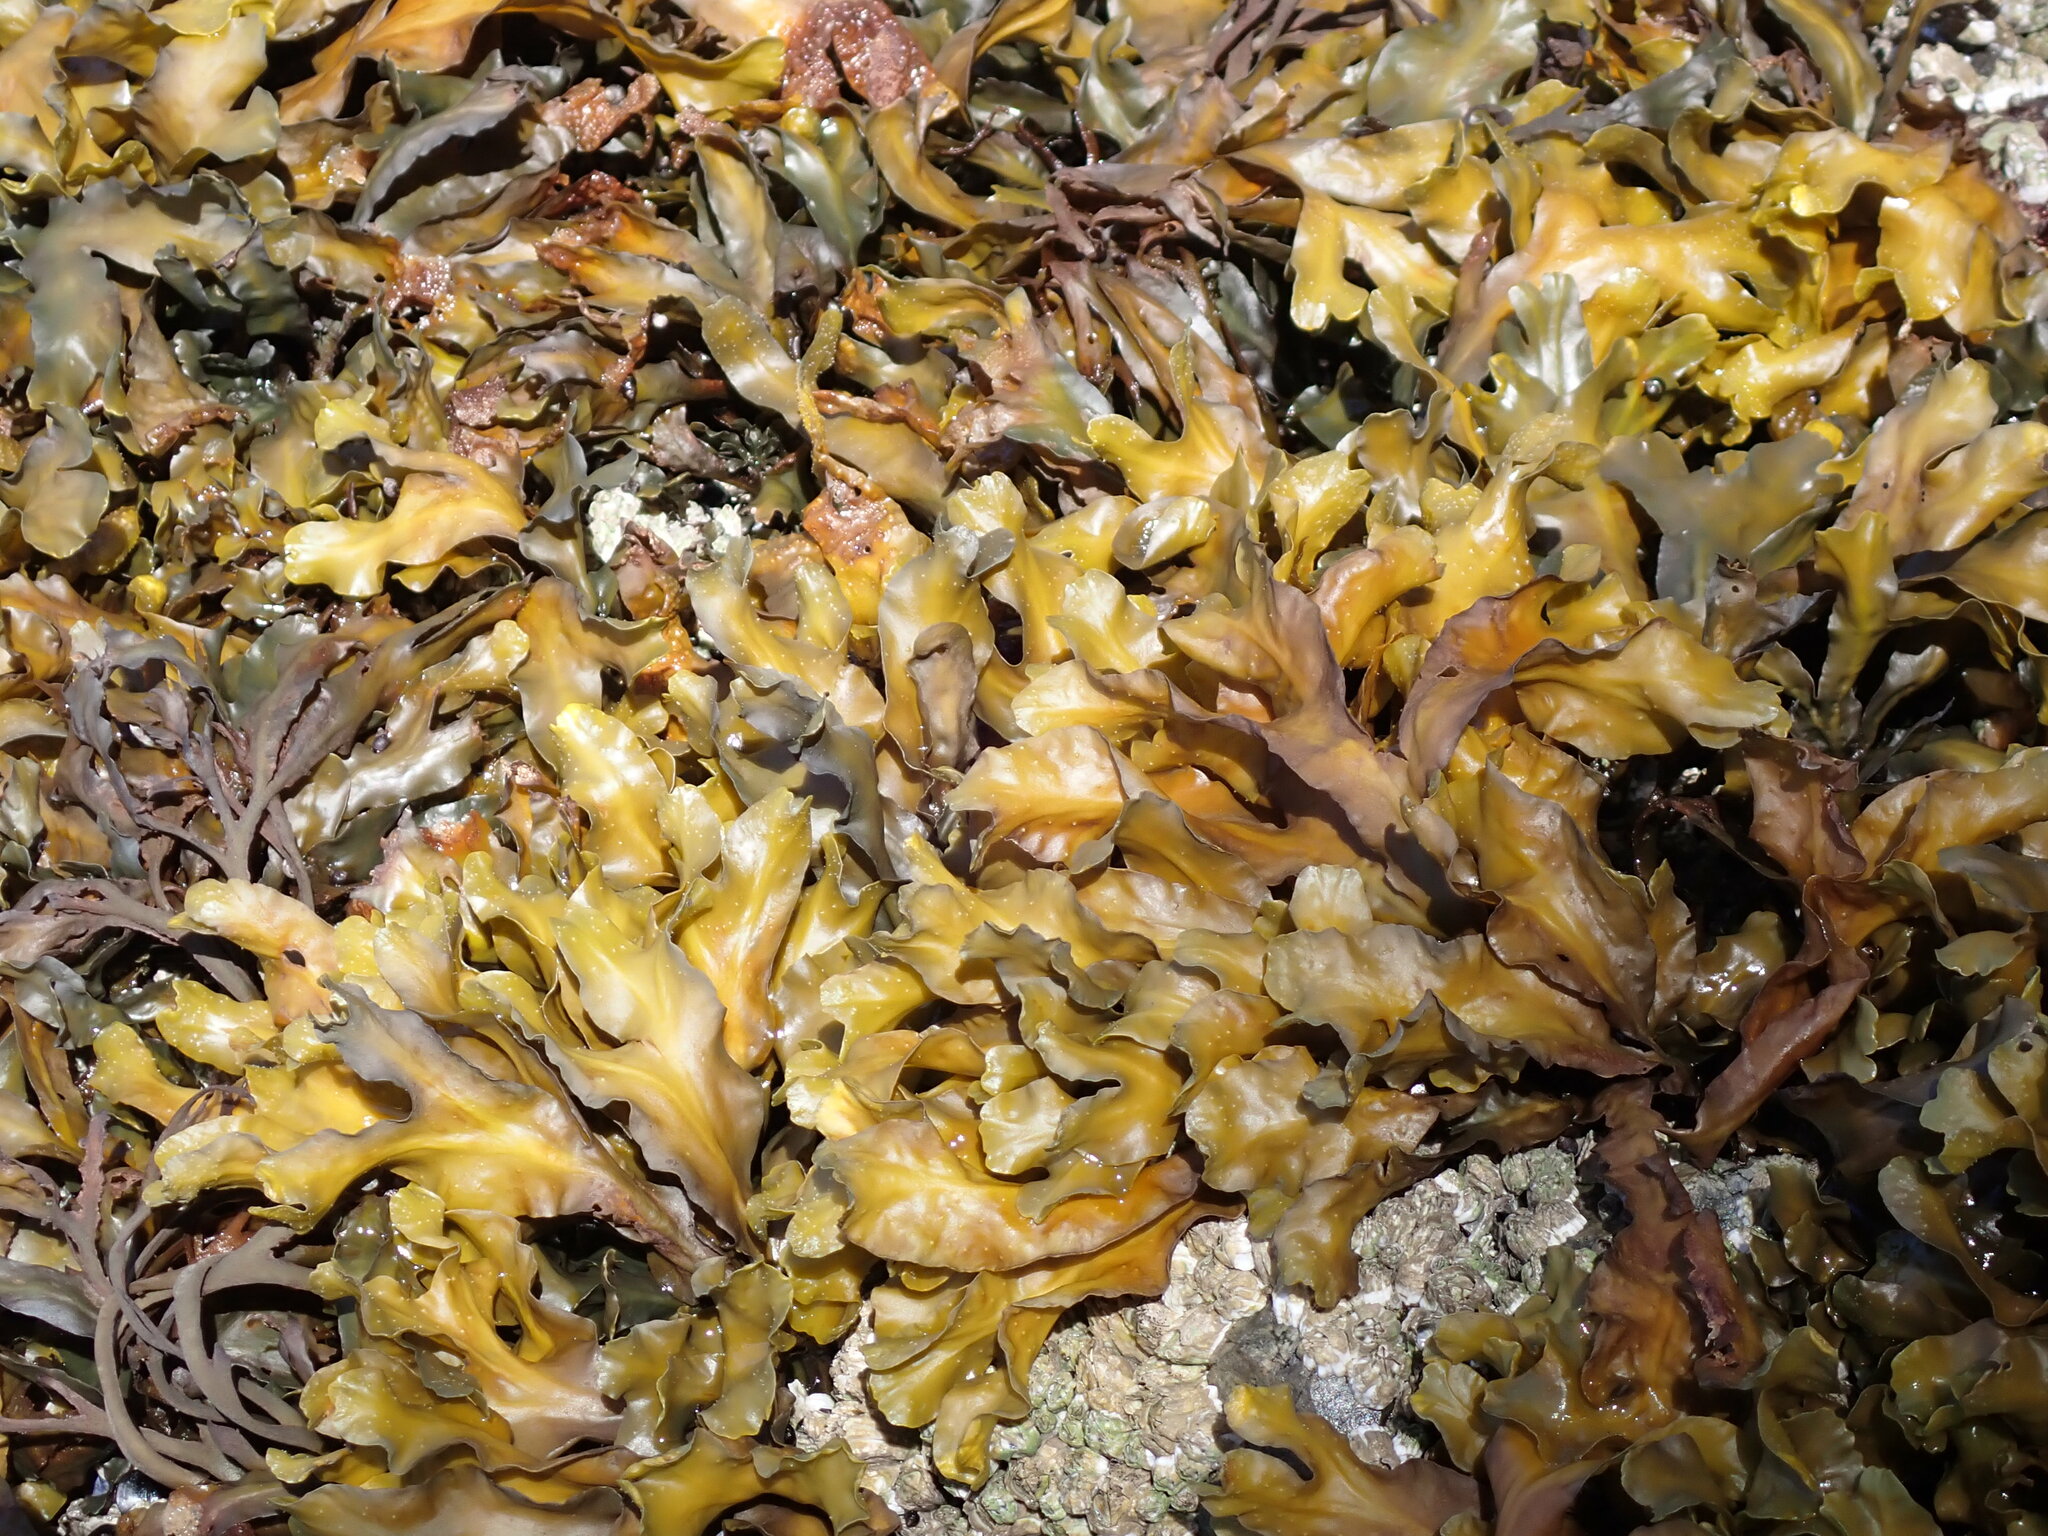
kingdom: Chromista
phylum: Ochrophyta
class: Phaeophyceae
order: Fucales
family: Fucaceae
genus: Fucus
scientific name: Fucus distichus
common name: Rockweed
